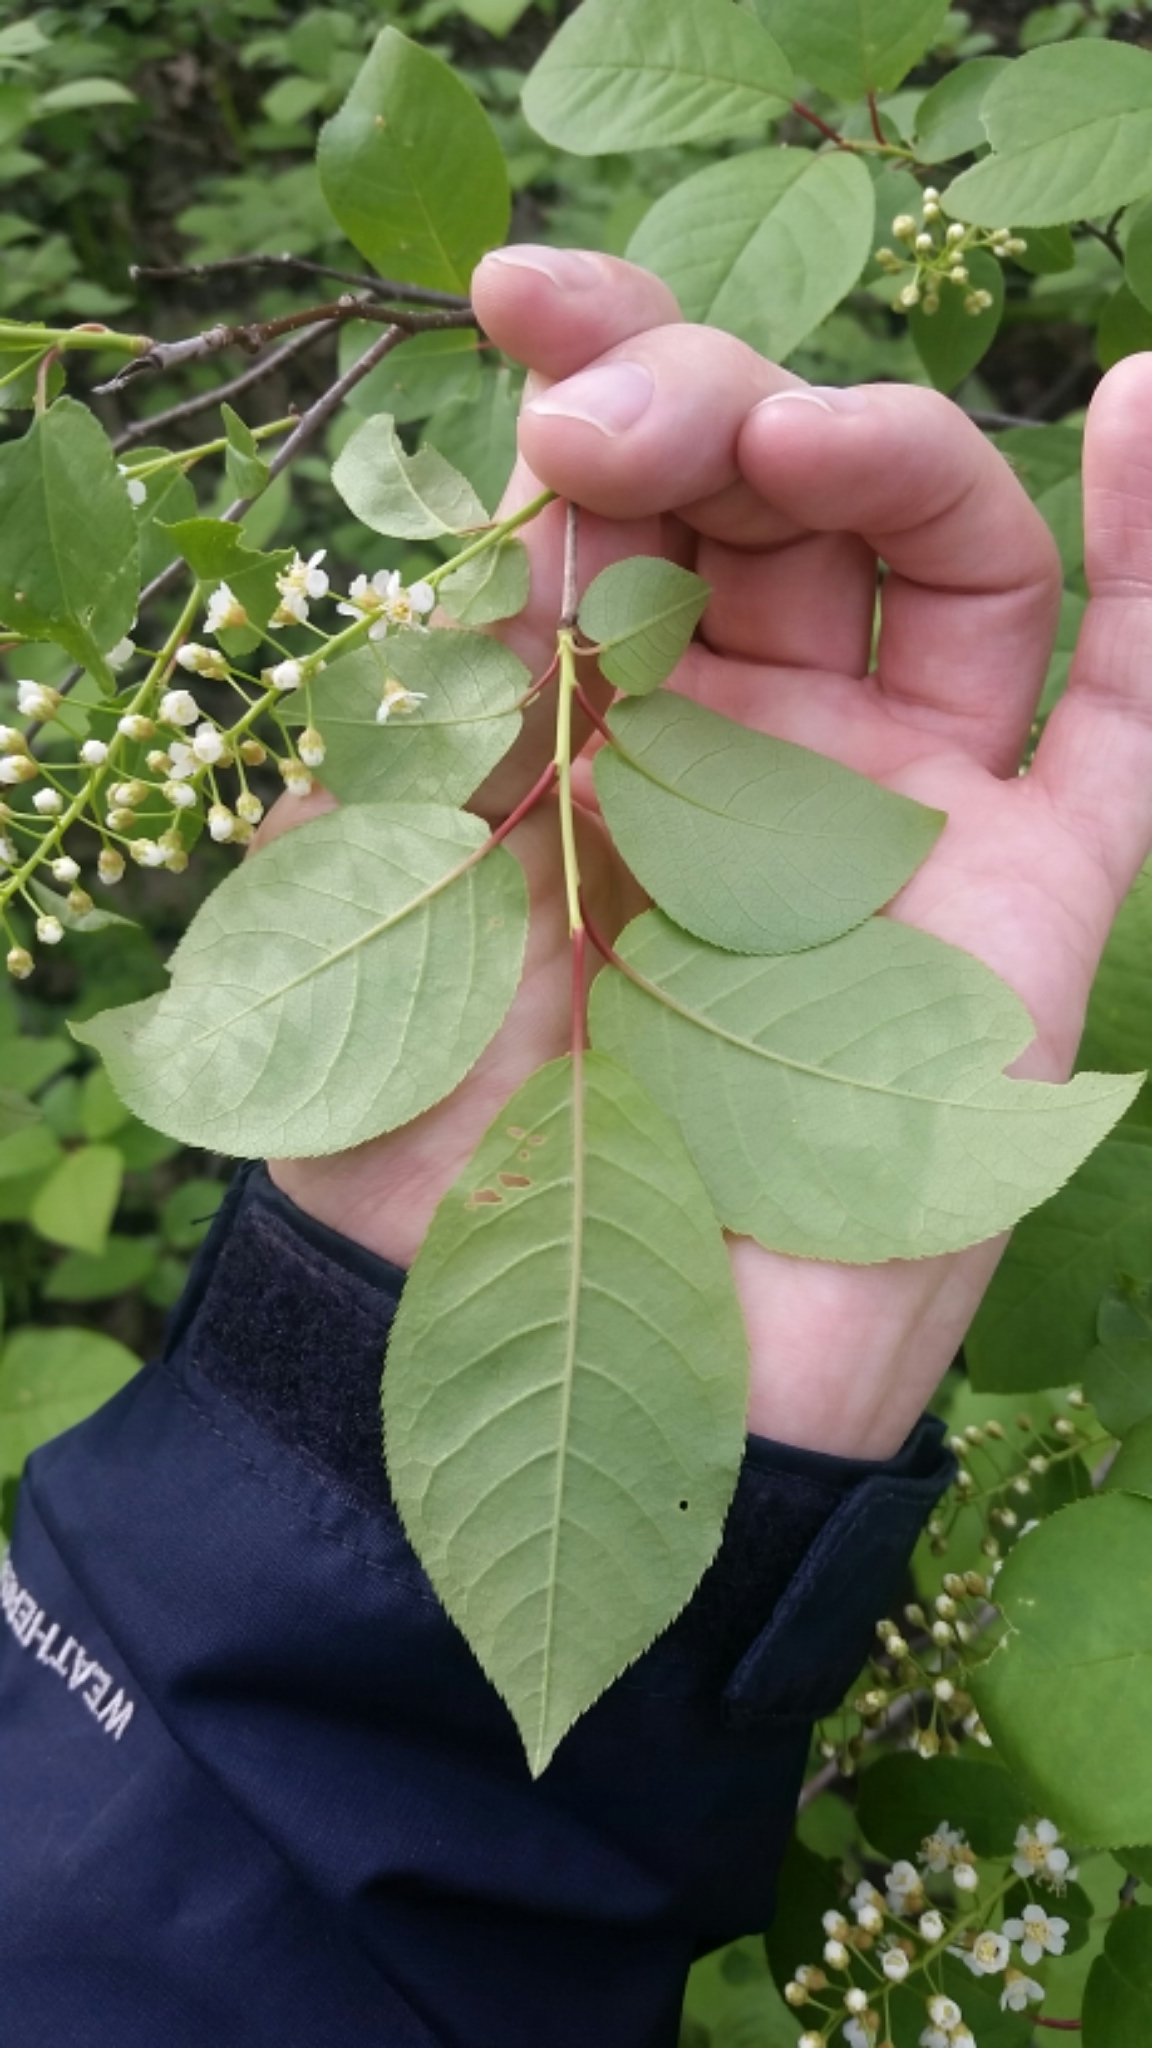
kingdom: Plantae
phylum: Tracheophyta
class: Magnoliopsida
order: Rosales
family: Rosaceae
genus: Prunus
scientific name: Prunus virginiana
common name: Chokecherry
